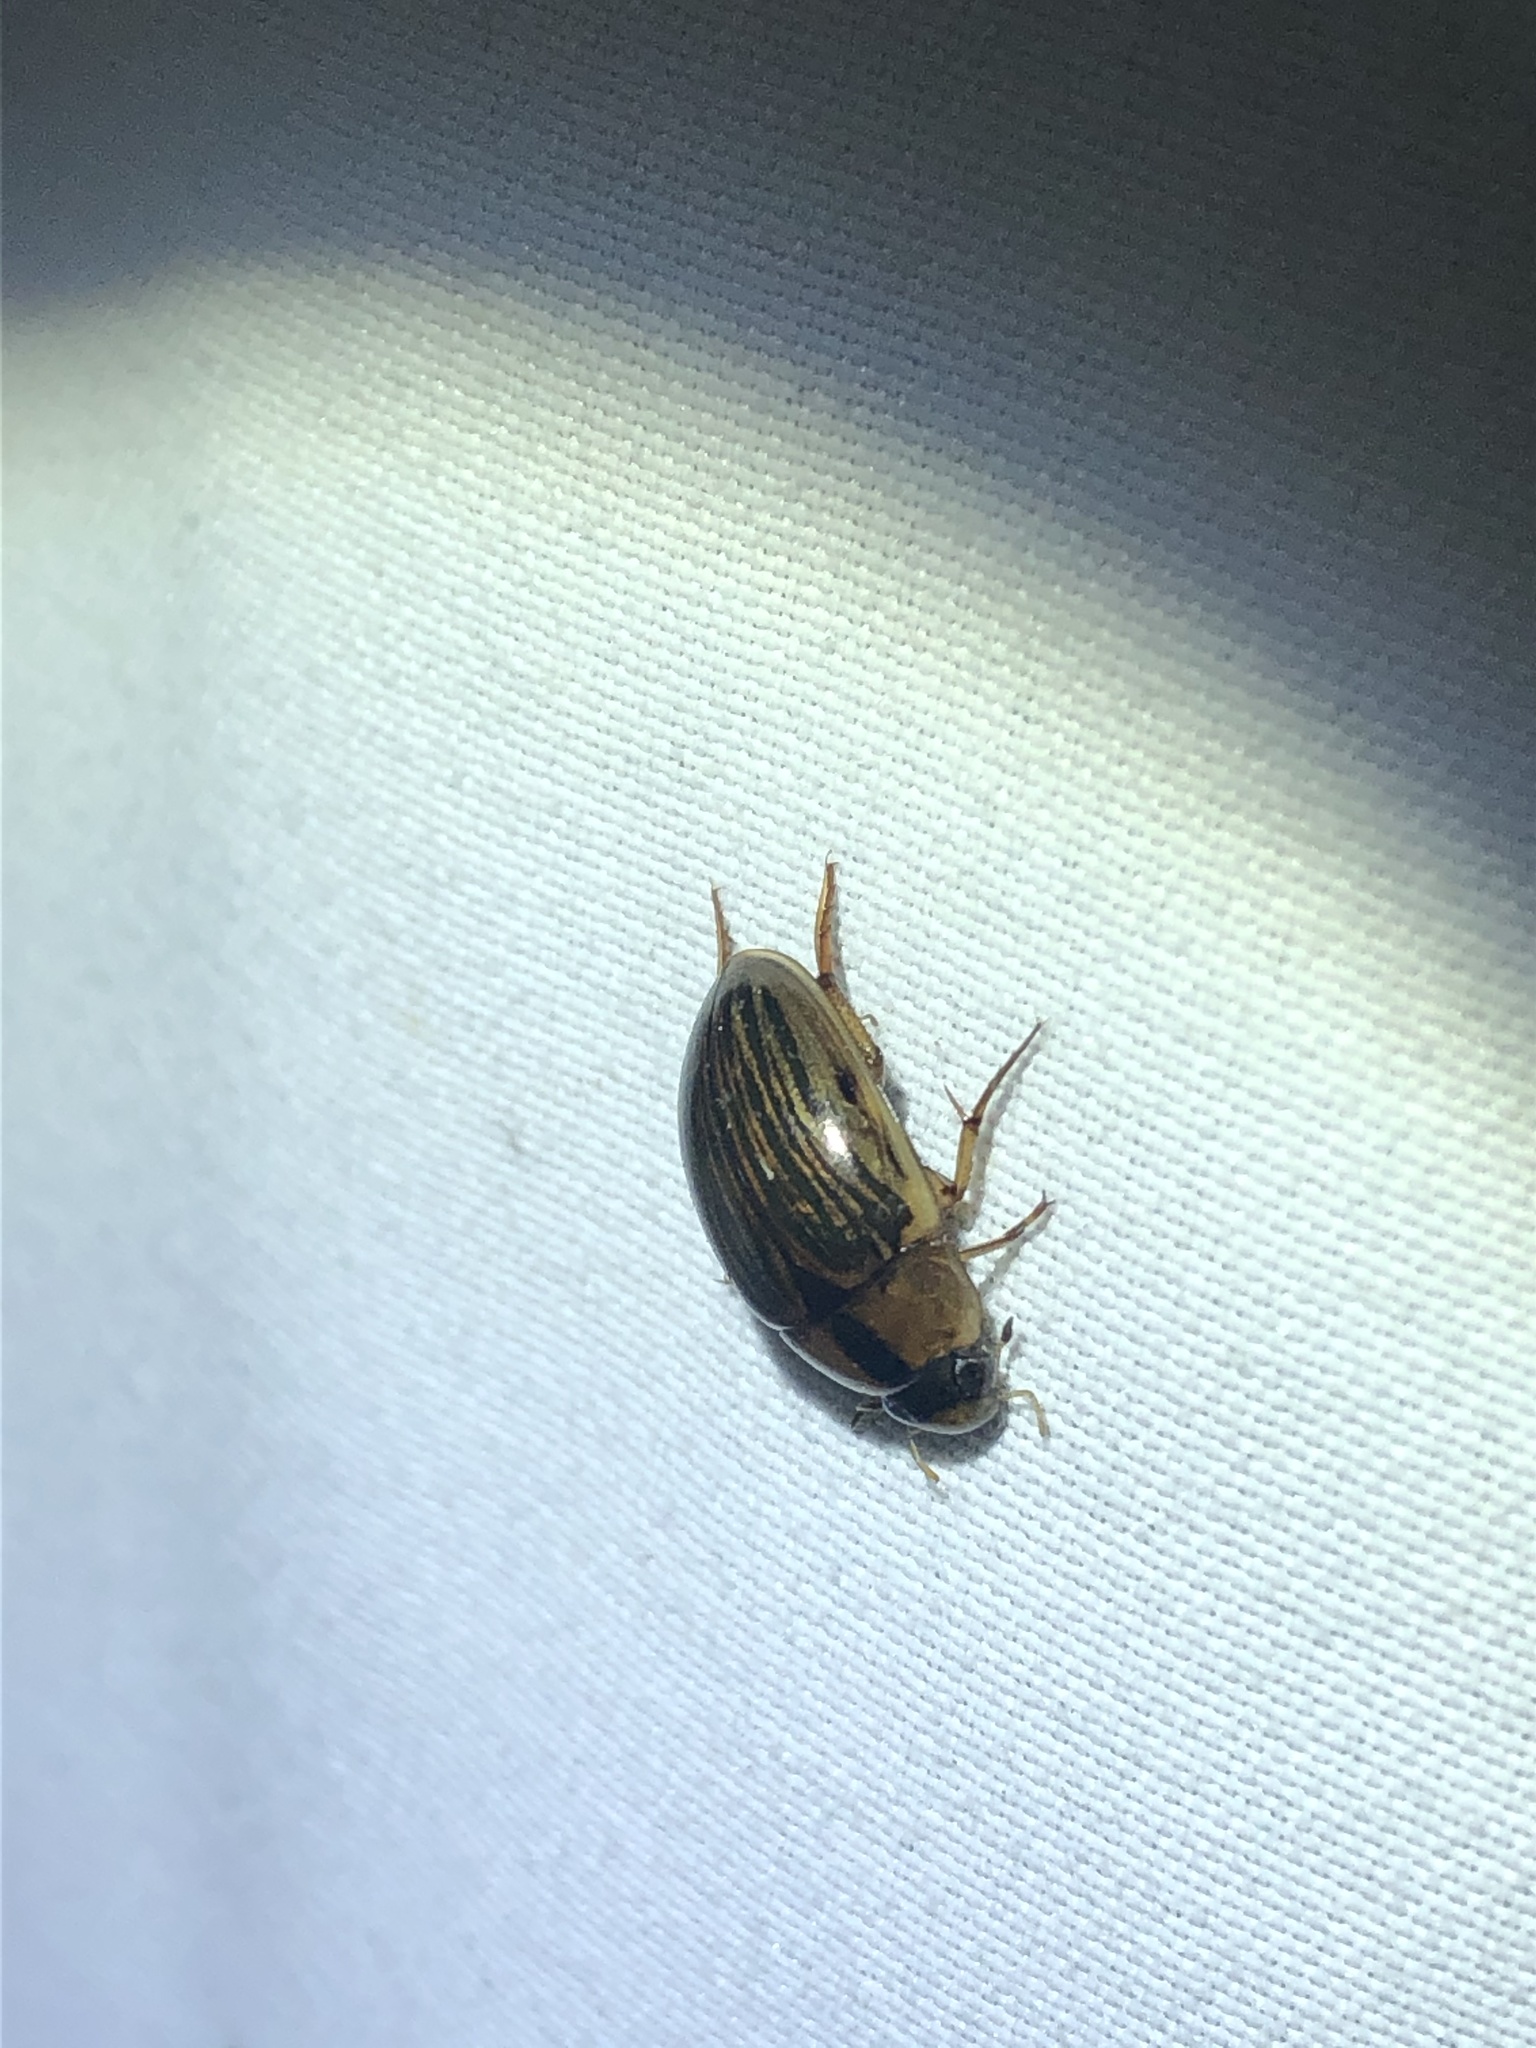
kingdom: Animalia
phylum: Arthropoda
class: Insecta
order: Coleoptera
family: Hydrophilidae
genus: Tropisternus
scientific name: Tropisternus collaris
